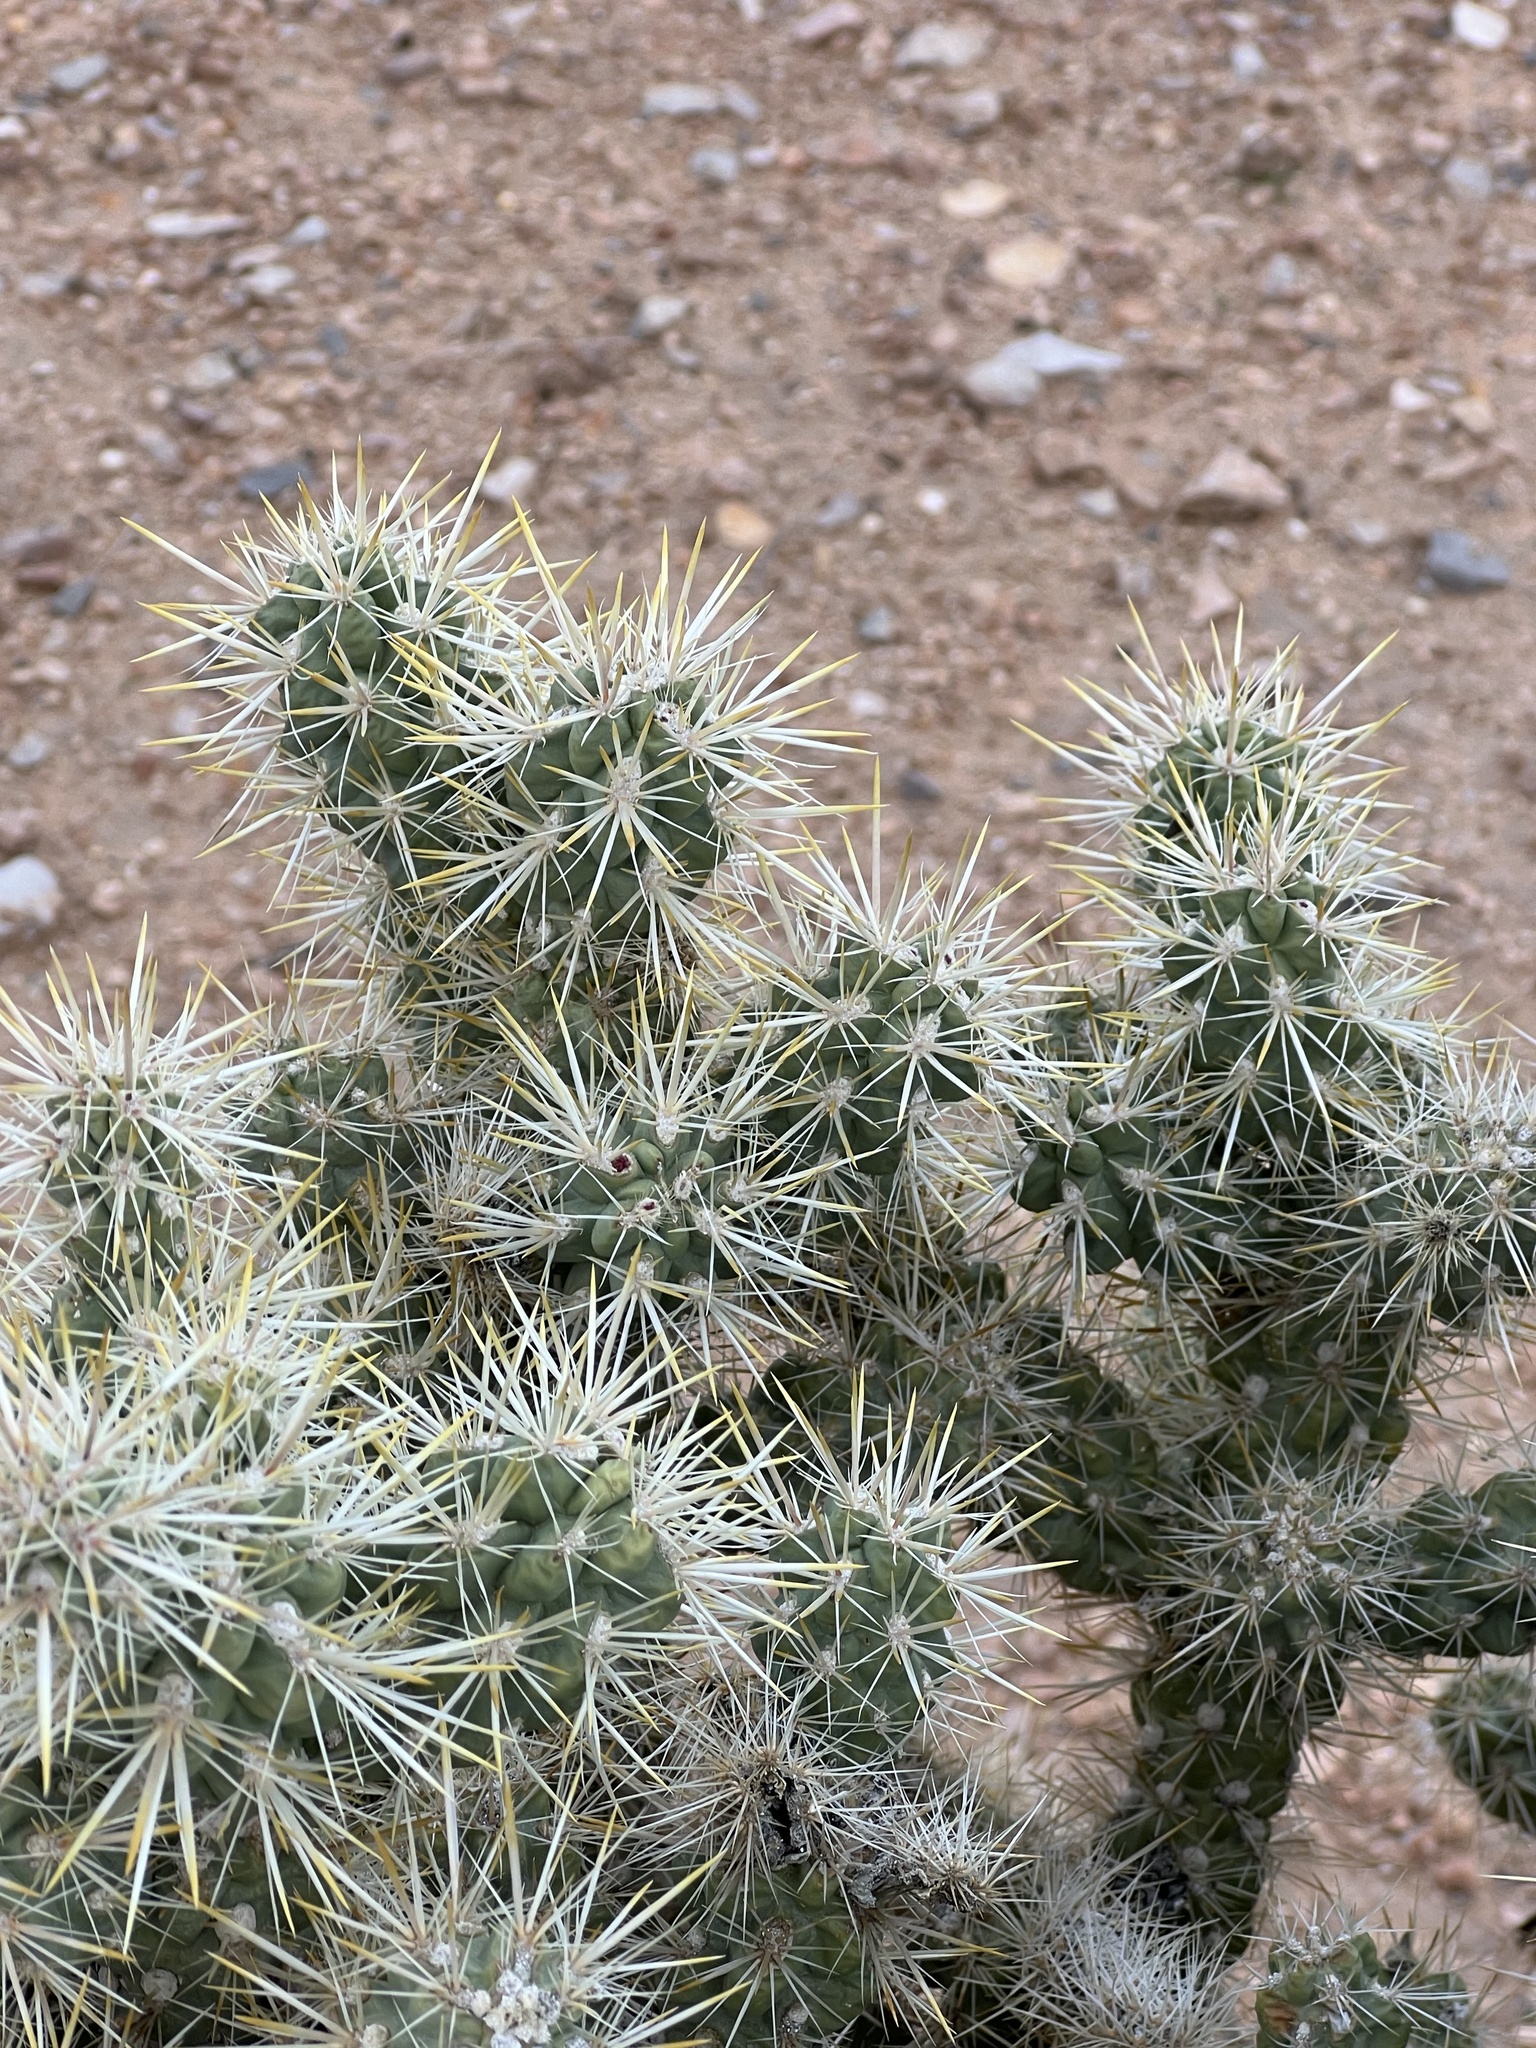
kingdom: Plantae
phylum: Tracheophyta
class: Magnoliopsida
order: Caryophyllales
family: Cactaceae
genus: Cylindropuntia
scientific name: Cylindropuntia echinocarpa
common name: Ground cholla
